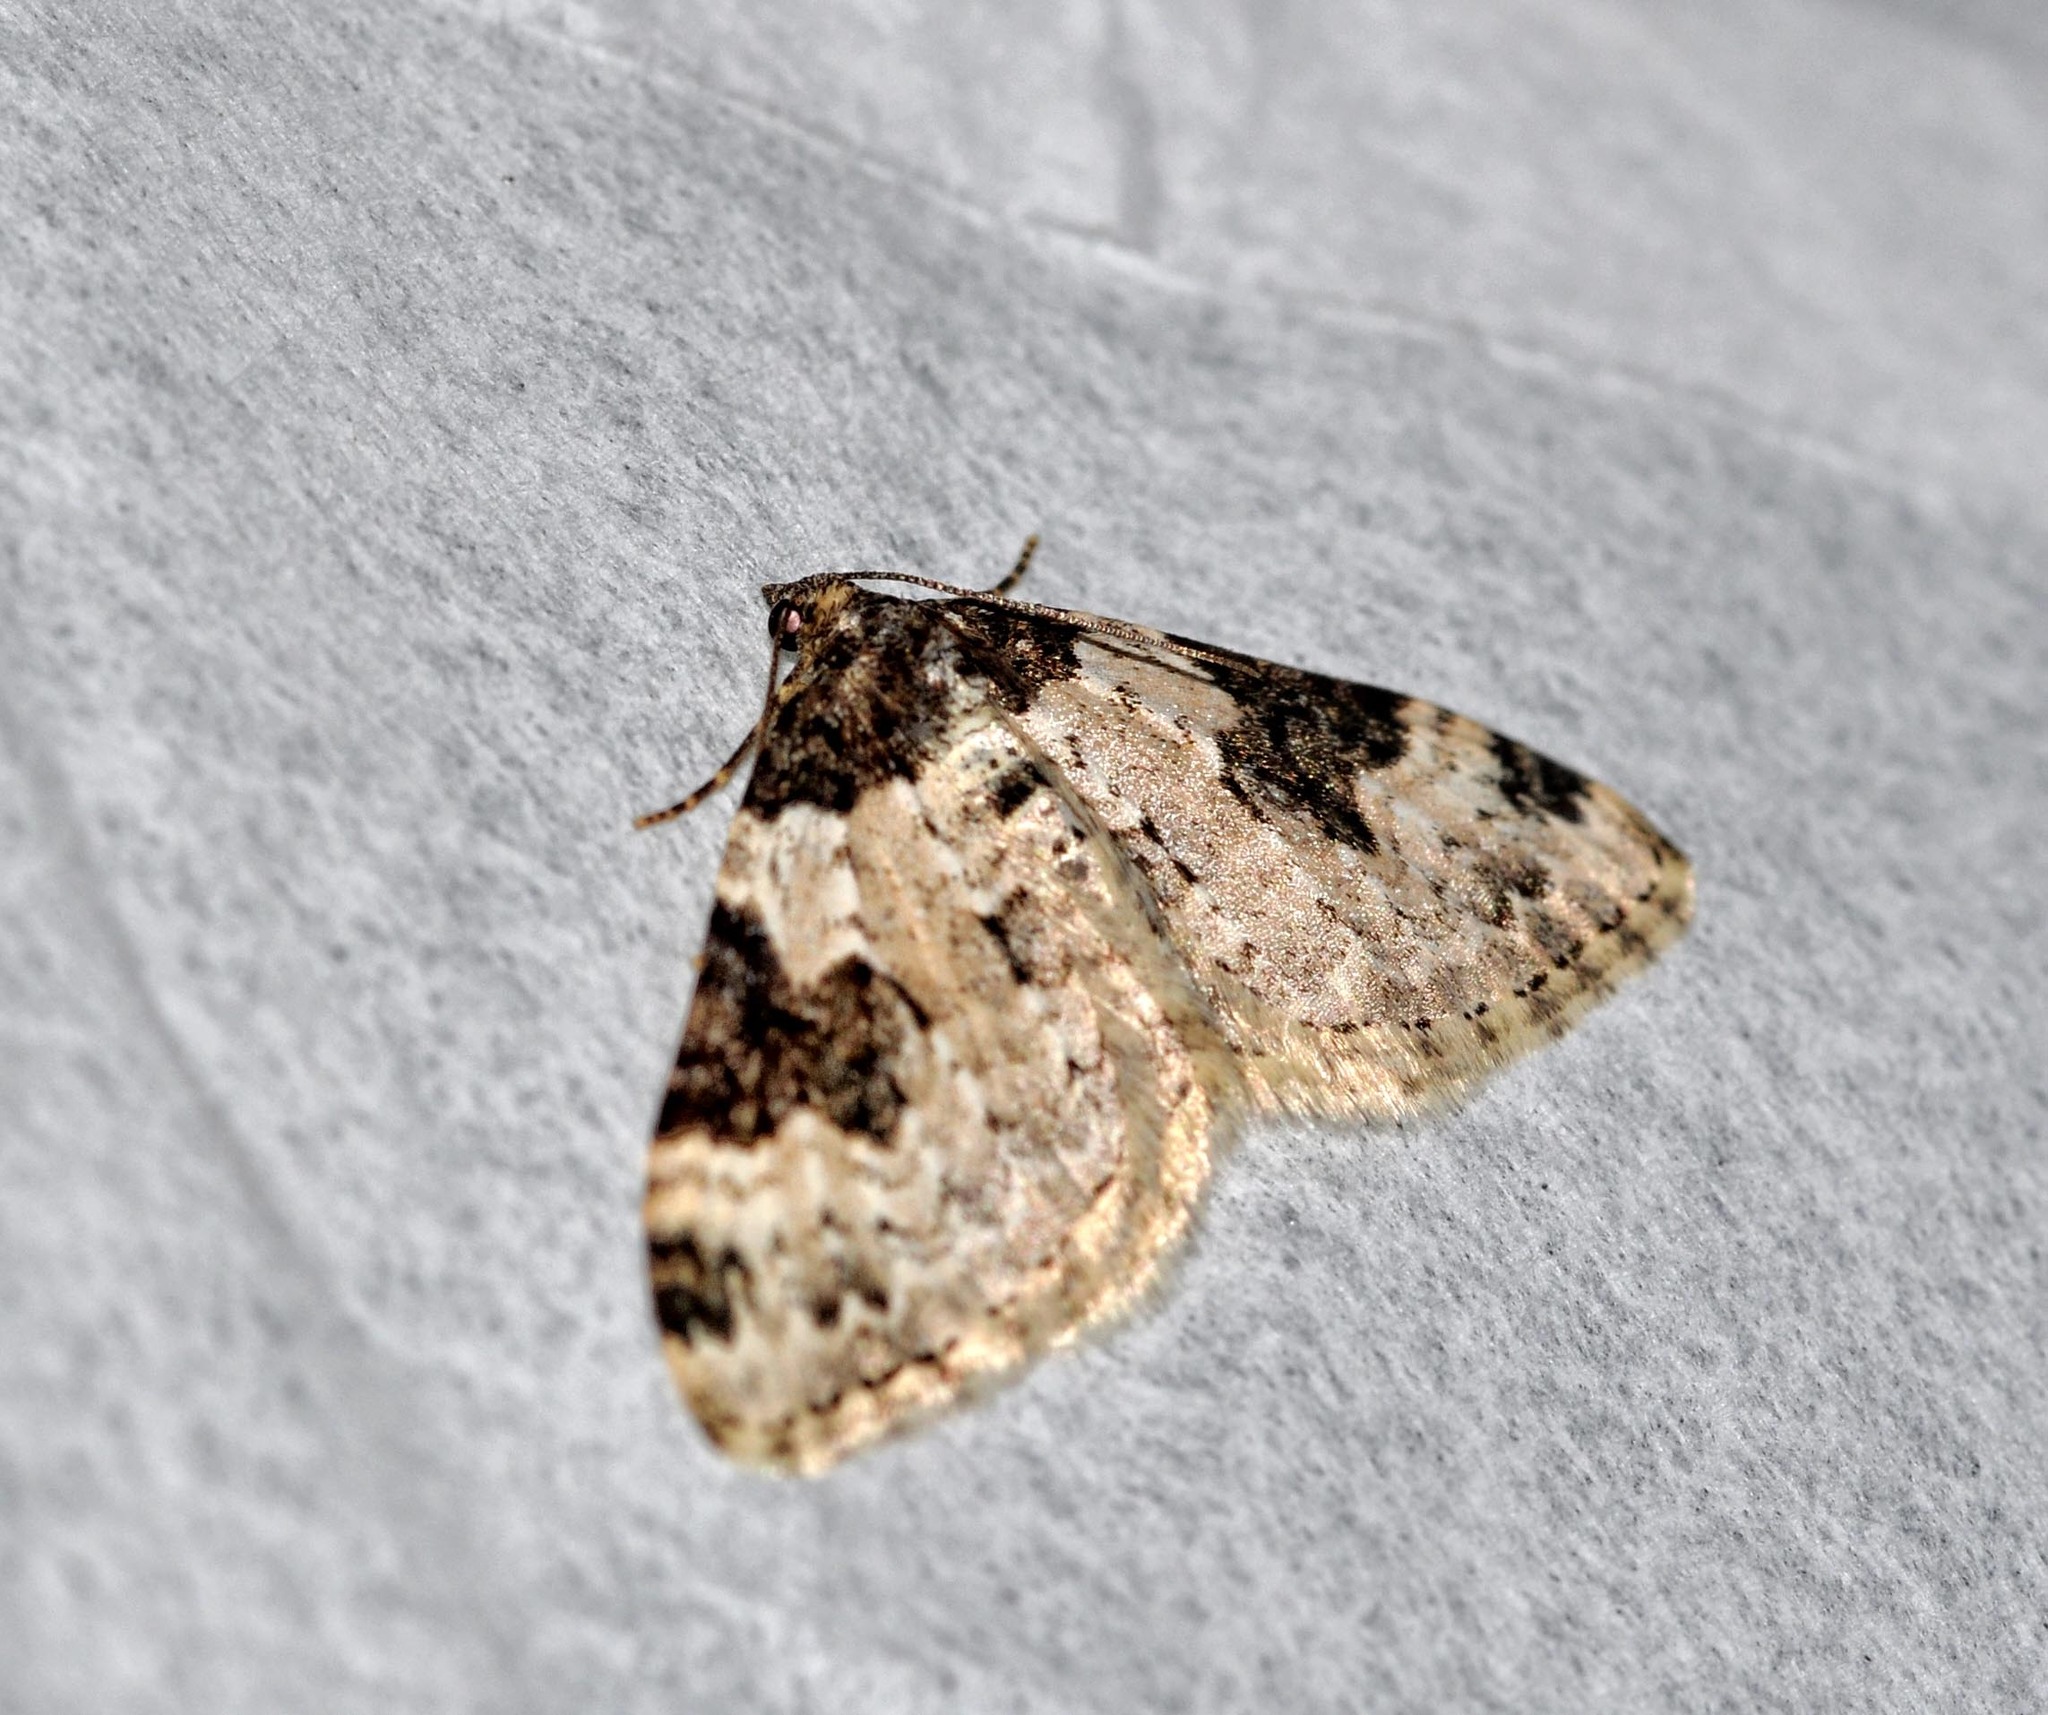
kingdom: Animalia
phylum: Arthropoda
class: Insecta
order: Lepidoptera
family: Geometridae
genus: Xanthorhoe
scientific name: Xanthorhoe fluctuata
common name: Garden carpet
